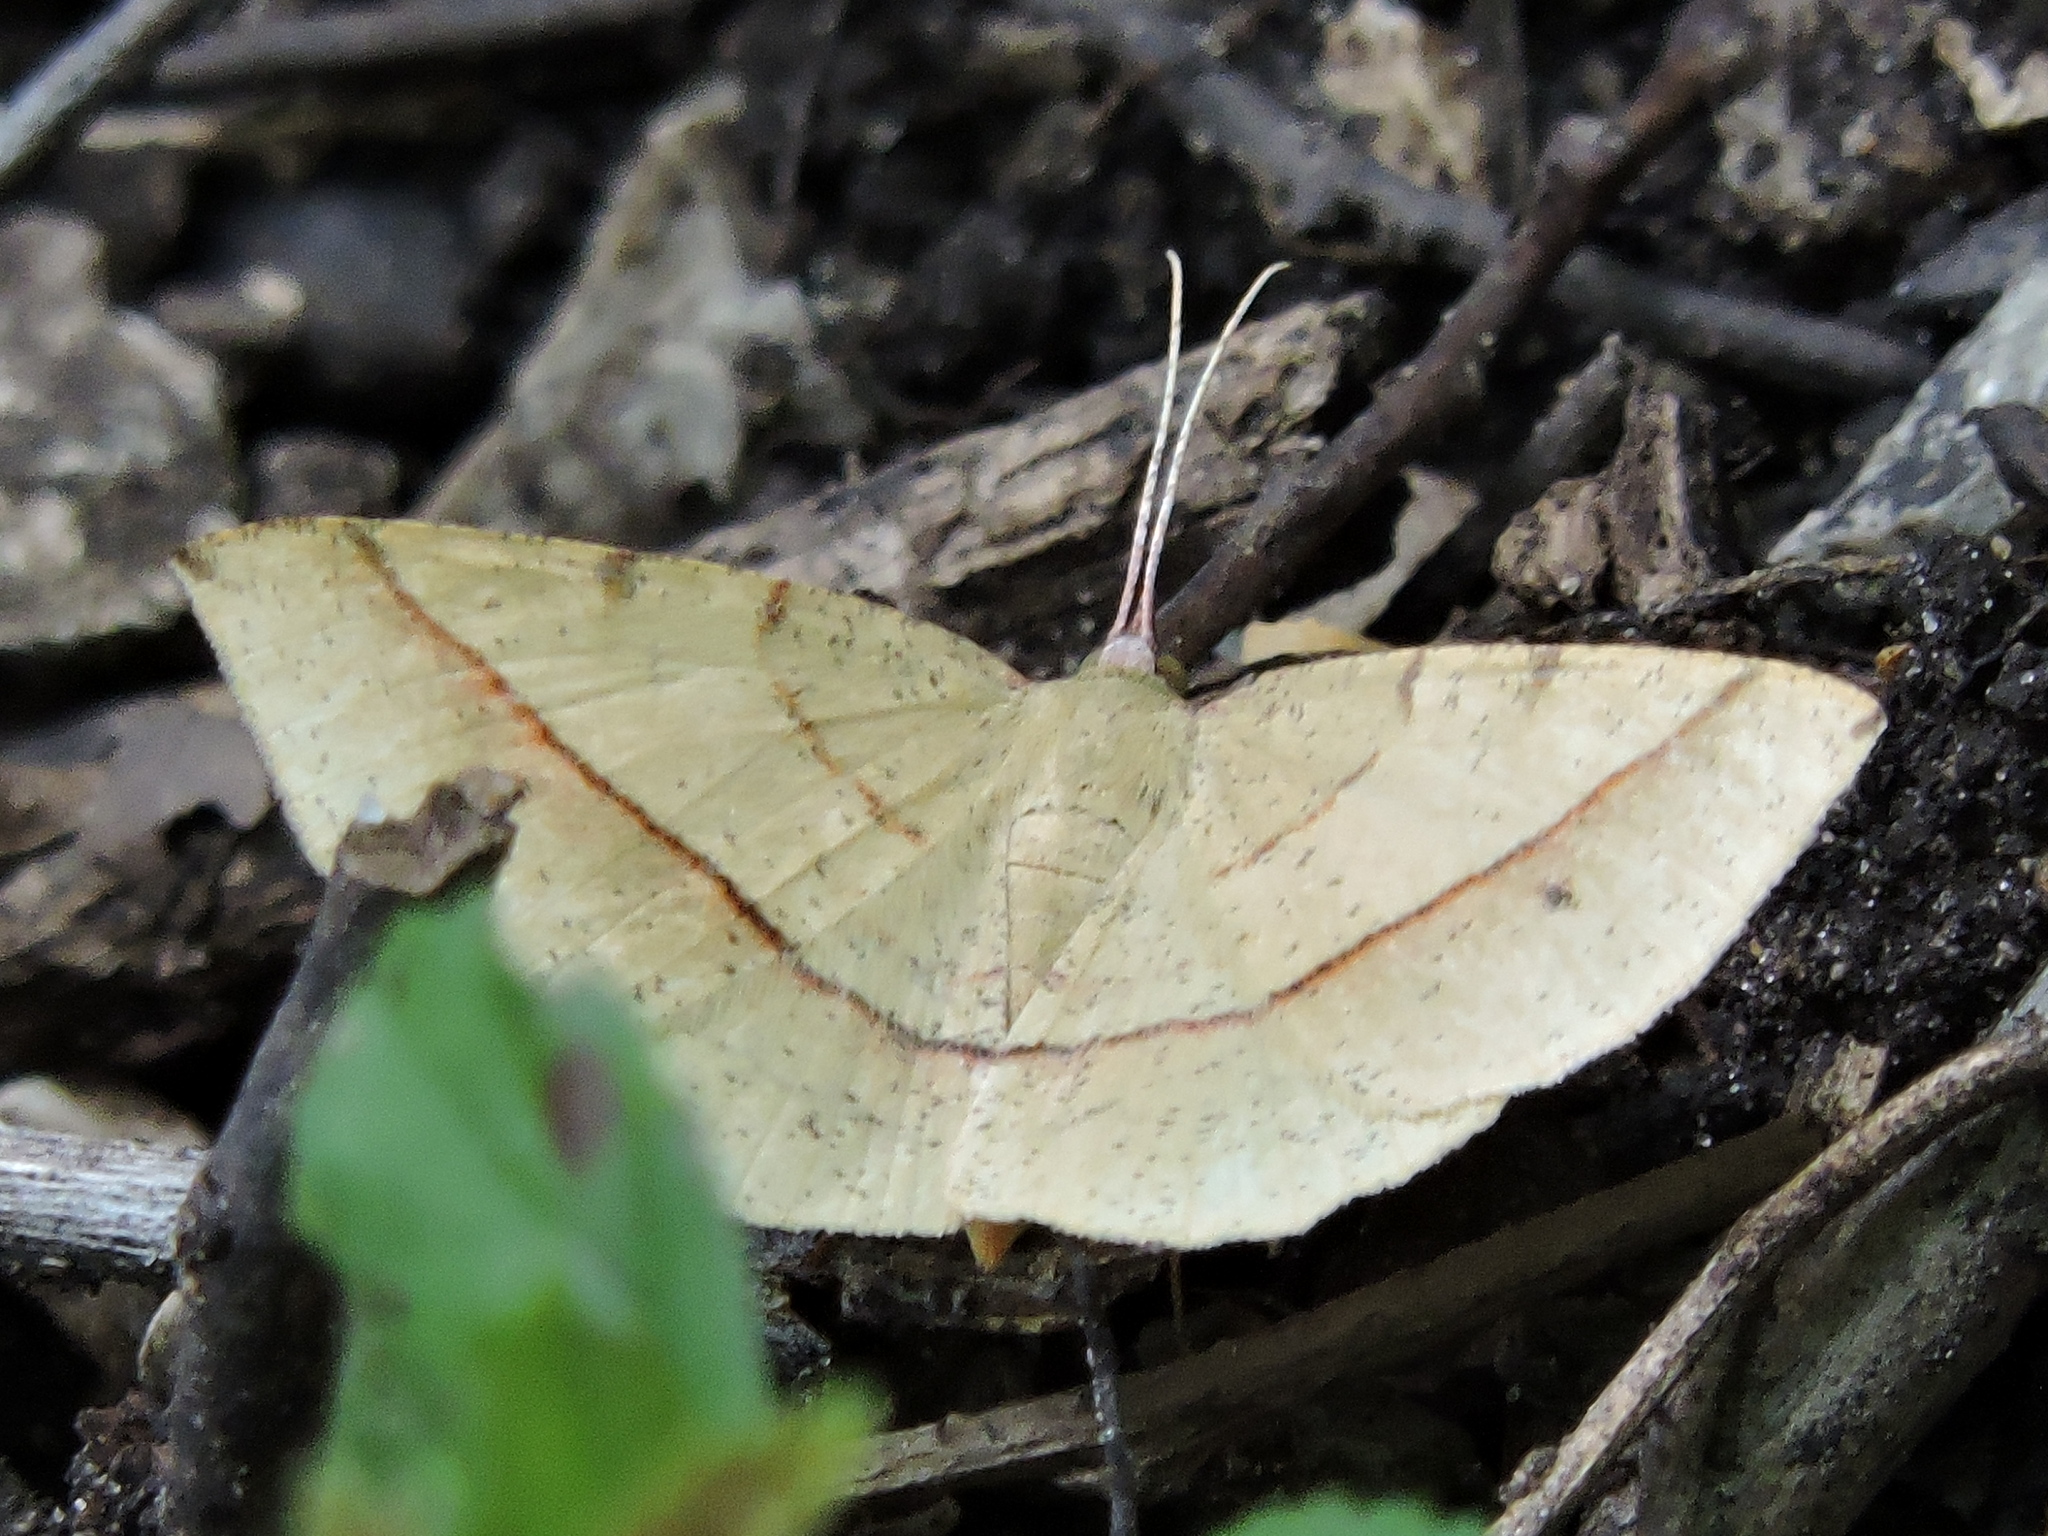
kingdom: Animalia
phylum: Arthropoda
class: Insecta
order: Lepidoptera
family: Geometridae
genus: Erastria
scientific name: Erastria cruentaria
